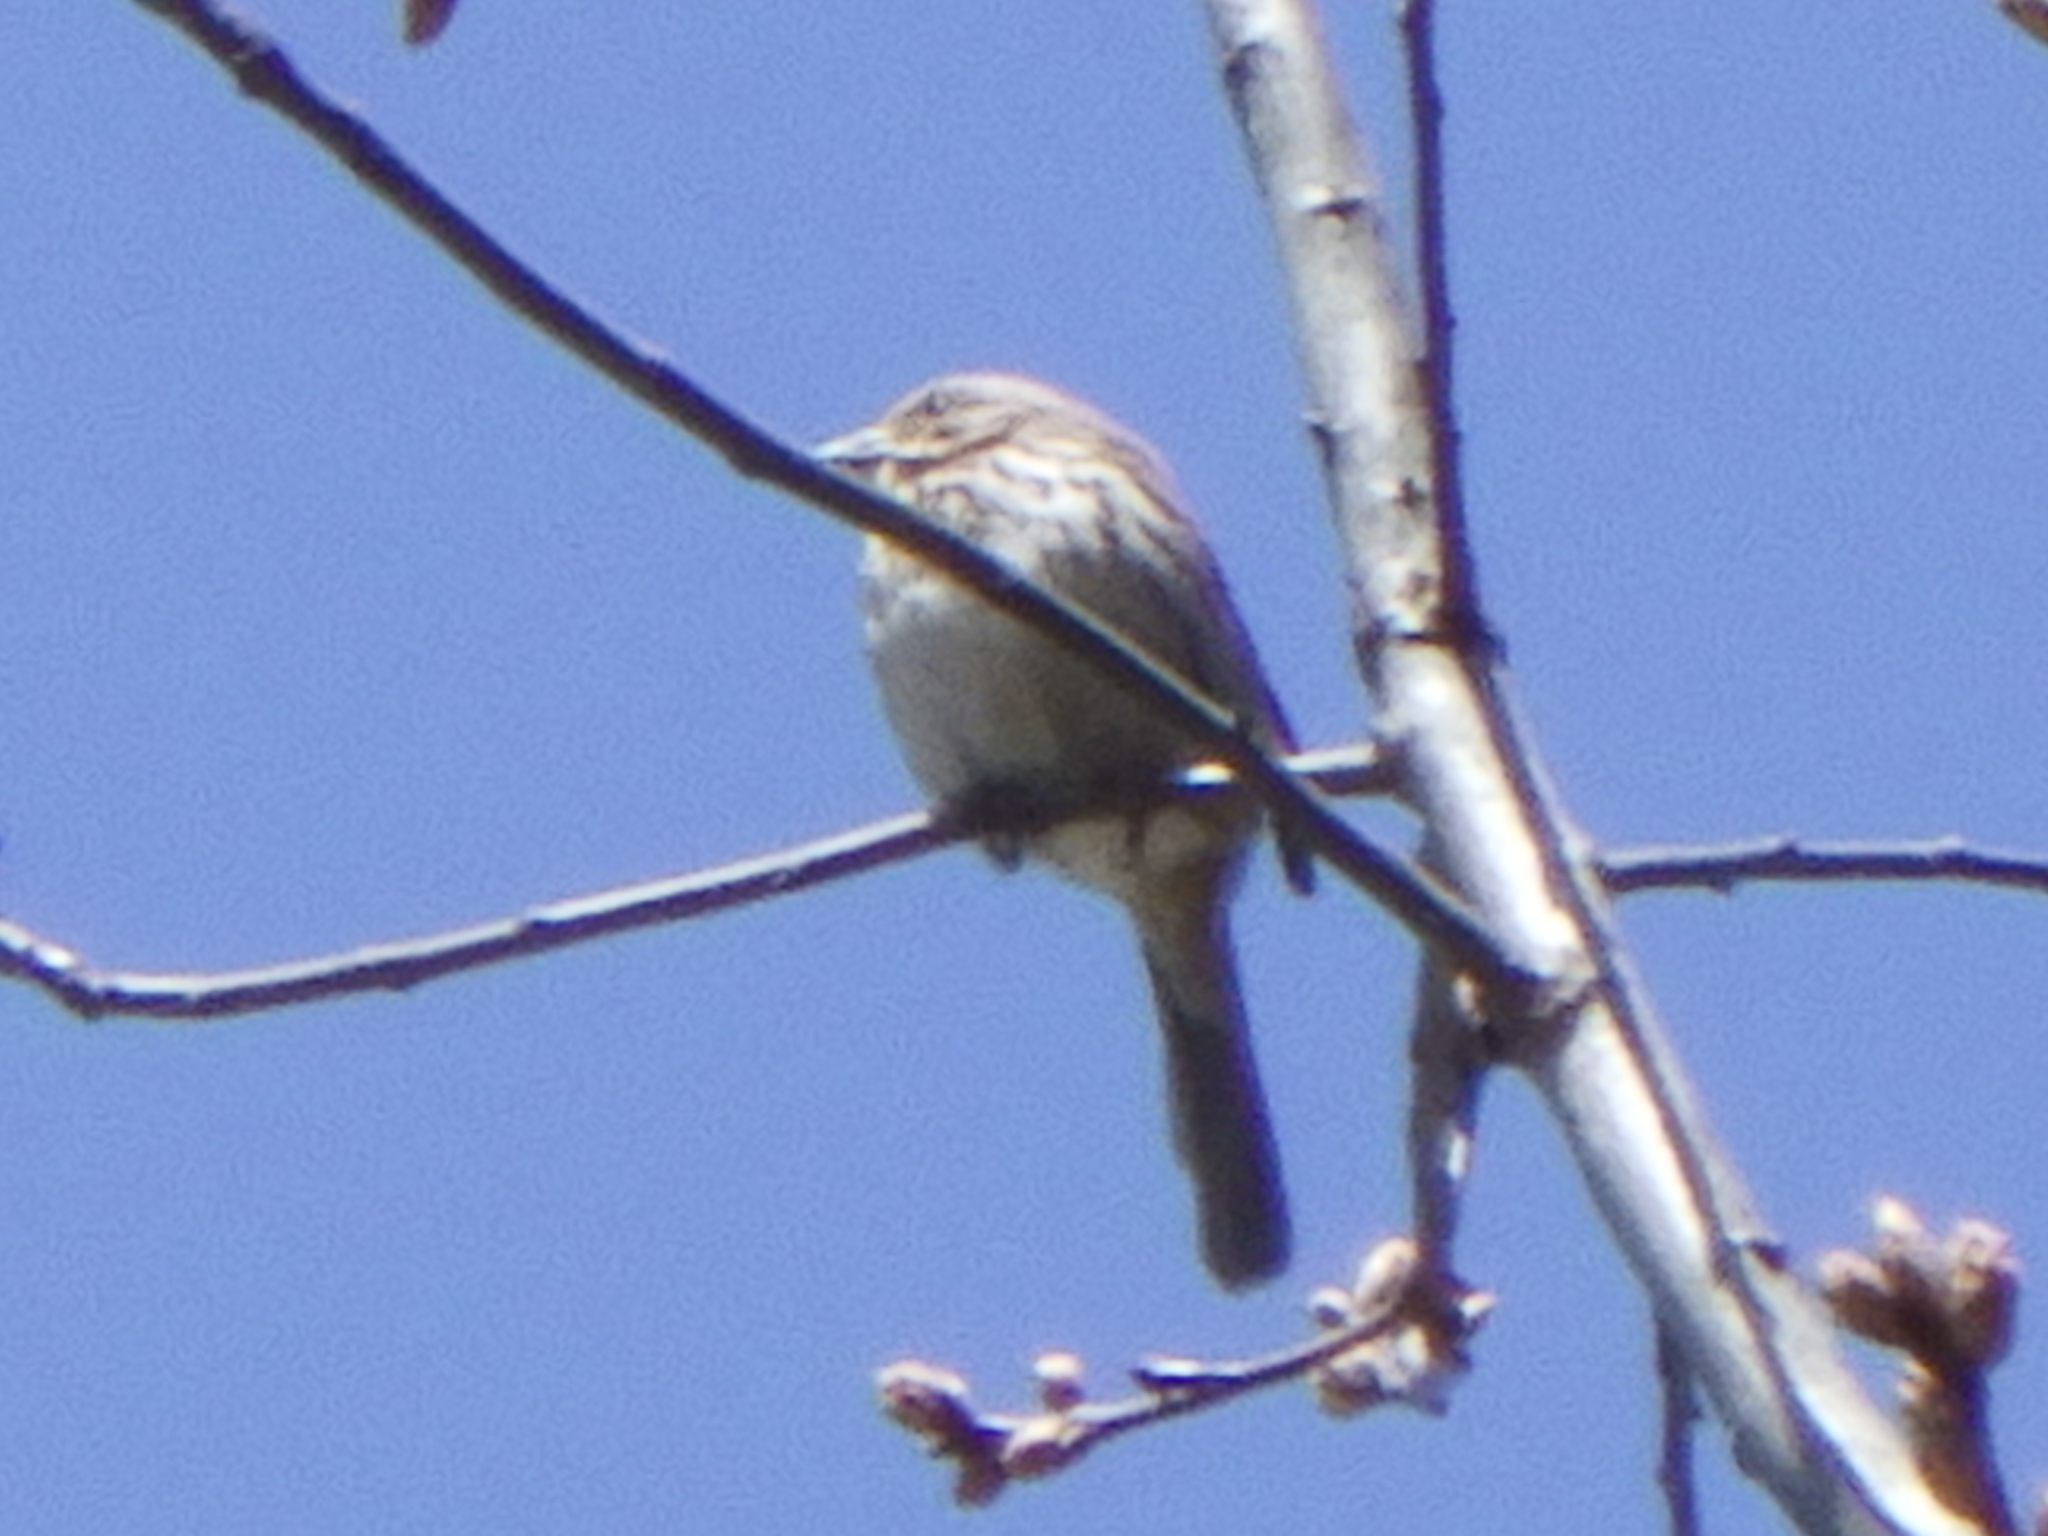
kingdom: Animalia
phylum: Chordata
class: Aves
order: Passeriformes
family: Passerellidae
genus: Melospiza
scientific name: Melospiza melodia
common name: Song sparrow
